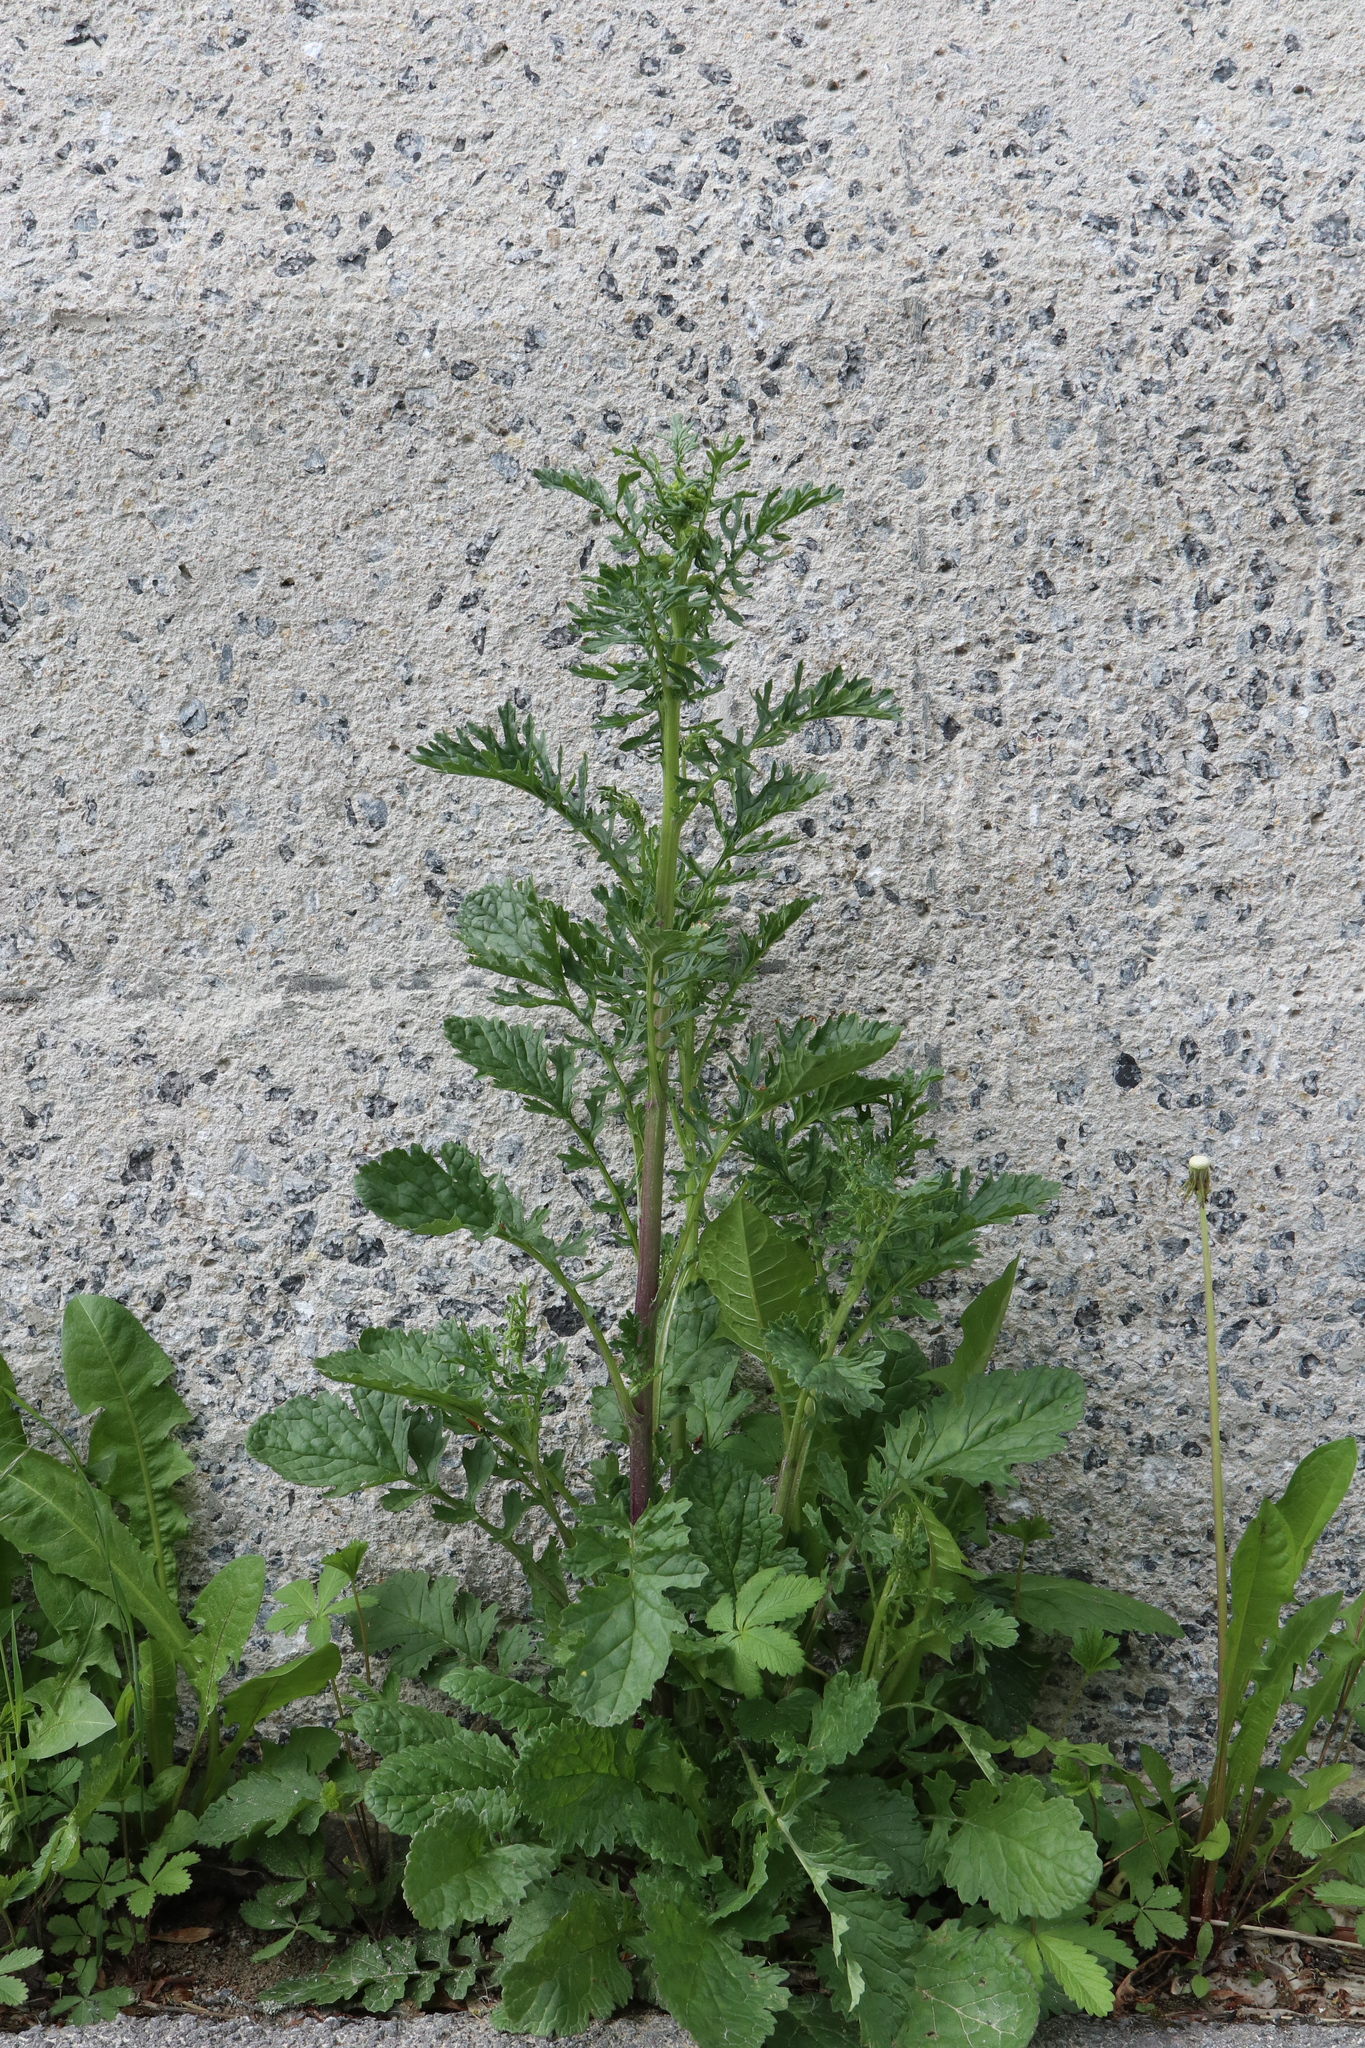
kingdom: Plantae
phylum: Tracheophyta
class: Magnoliopsida
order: Asterales
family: Asteraceae
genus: Jacobaea
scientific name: Jacobaea vulgaris
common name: Stinking willie
